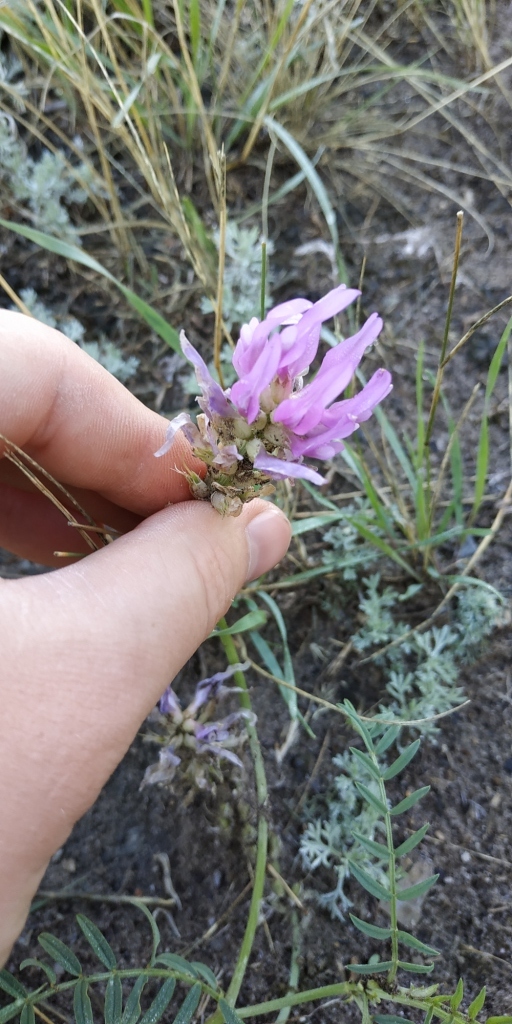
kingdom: Plantae
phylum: Tracheophyta
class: Magnoliopsida
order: Fabales
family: Fabaceae
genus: Astragalus
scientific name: Astragalus onobrychis
